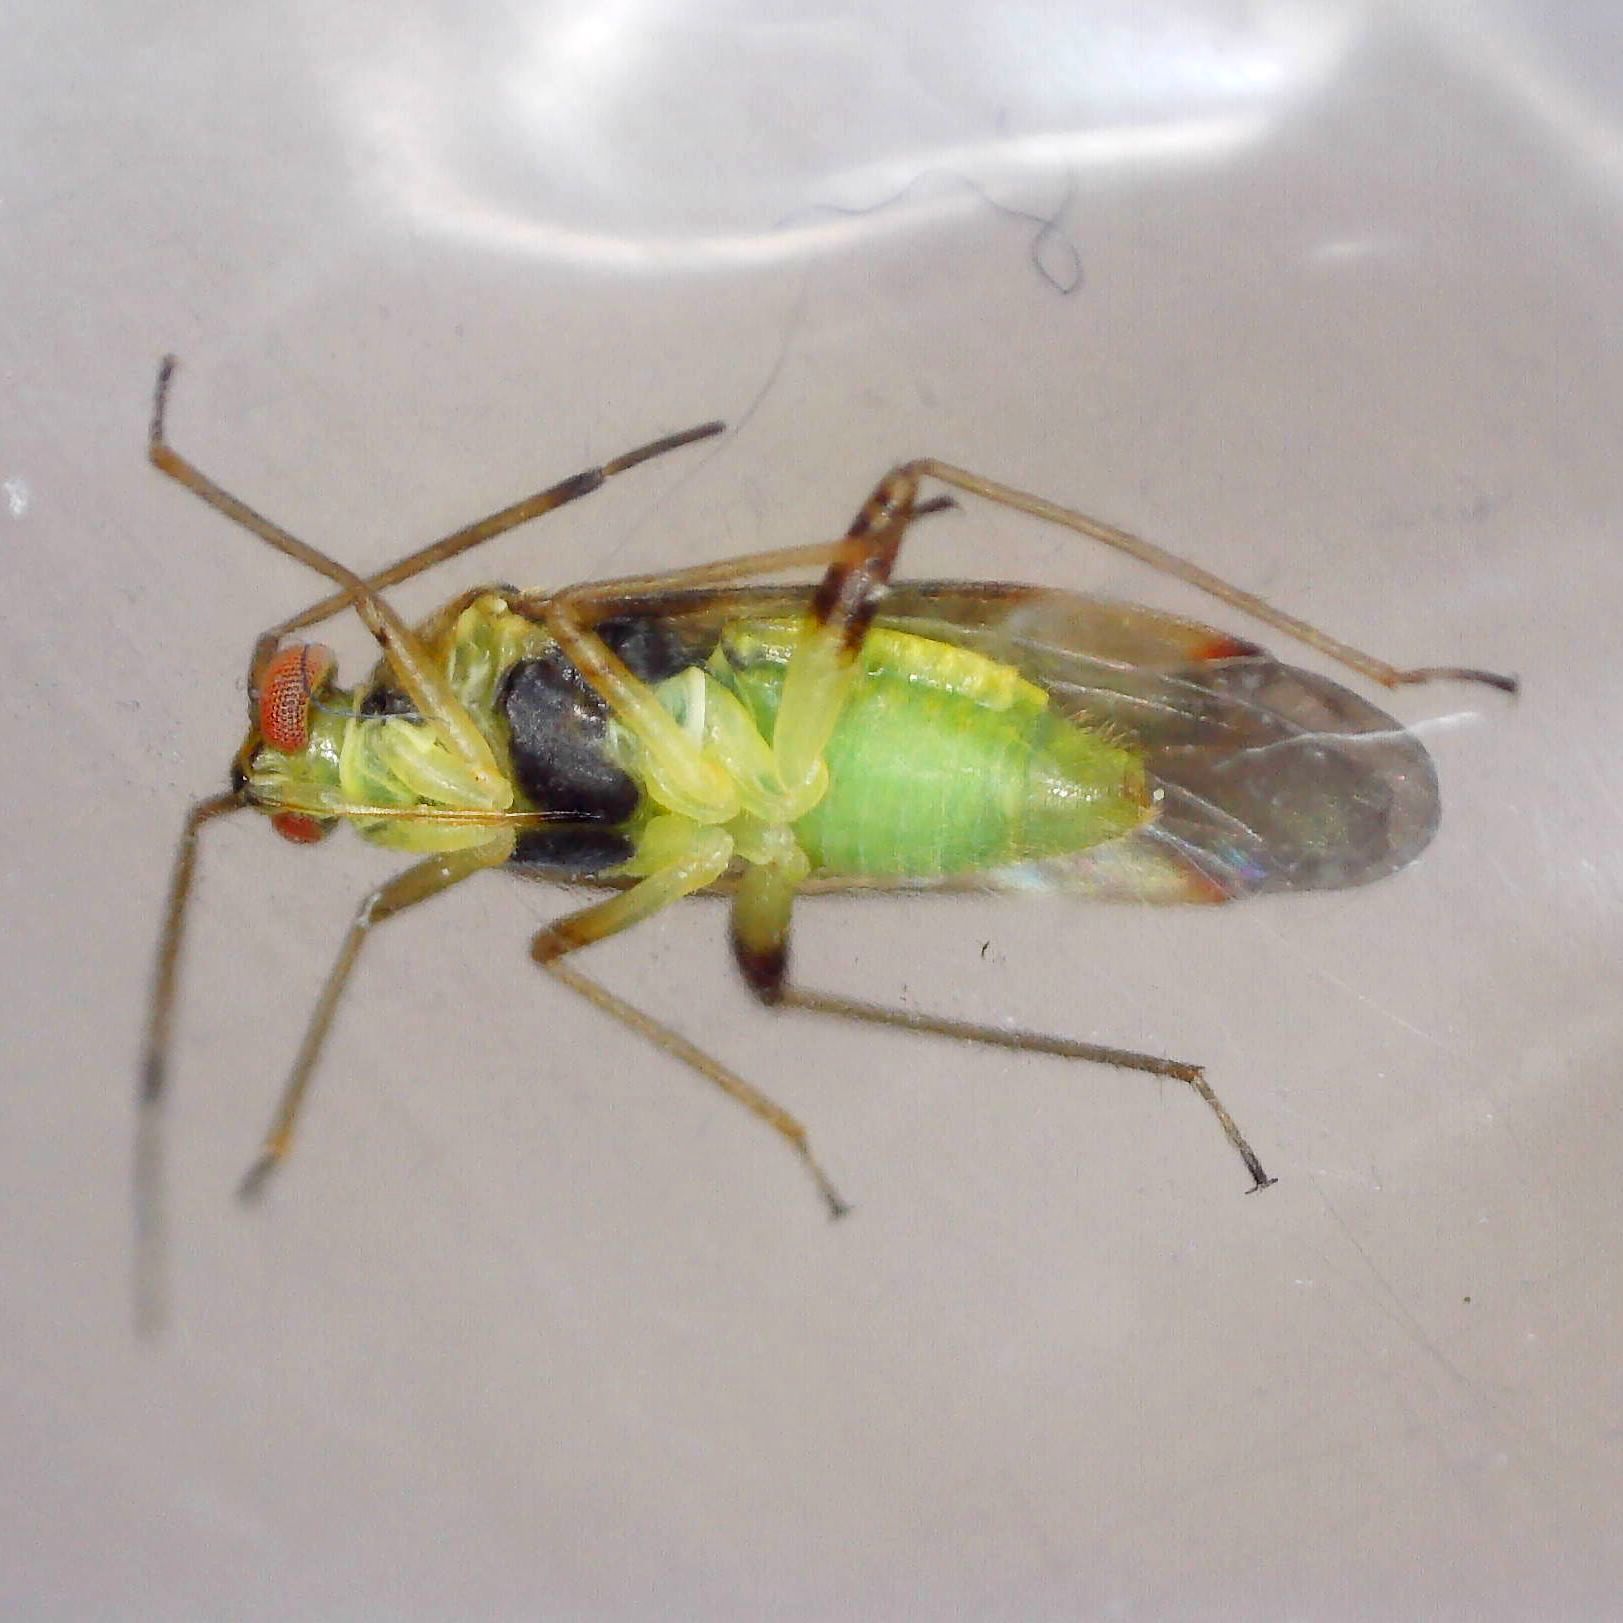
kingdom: Animalia
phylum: Arthropoda
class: Insecta
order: Hemiptera
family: Miridae
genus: Pinalitus
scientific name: Pinalitus cervinus
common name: Plant bug
